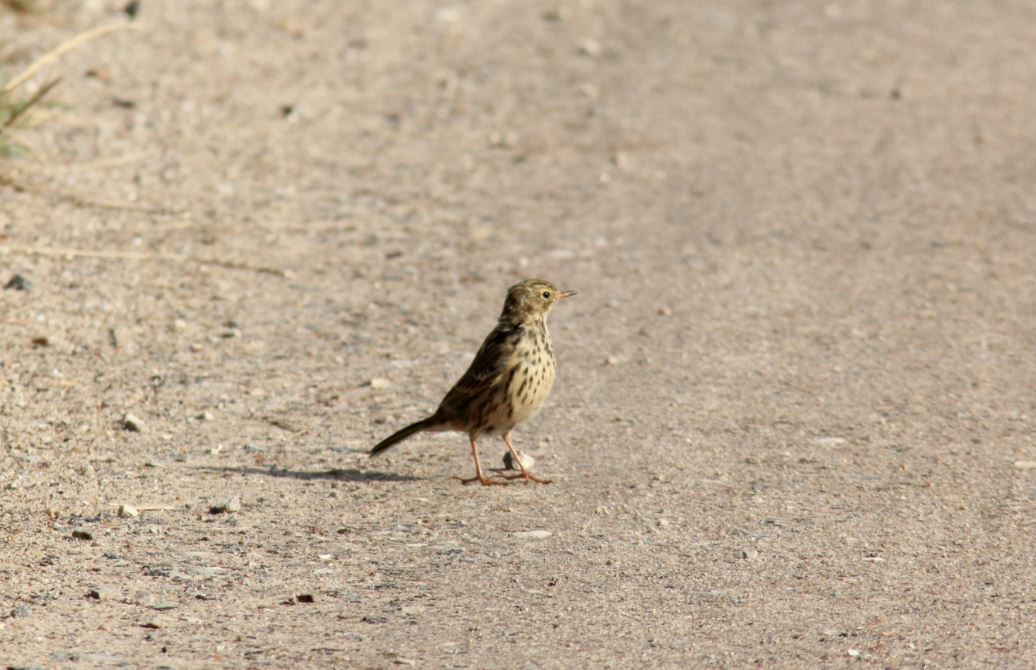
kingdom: Animalia
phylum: Chordata
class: Aves
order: Passeriformes
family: Motacillidae
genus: Anthus
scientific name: Anthus pratensis
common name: Meadow pipit
